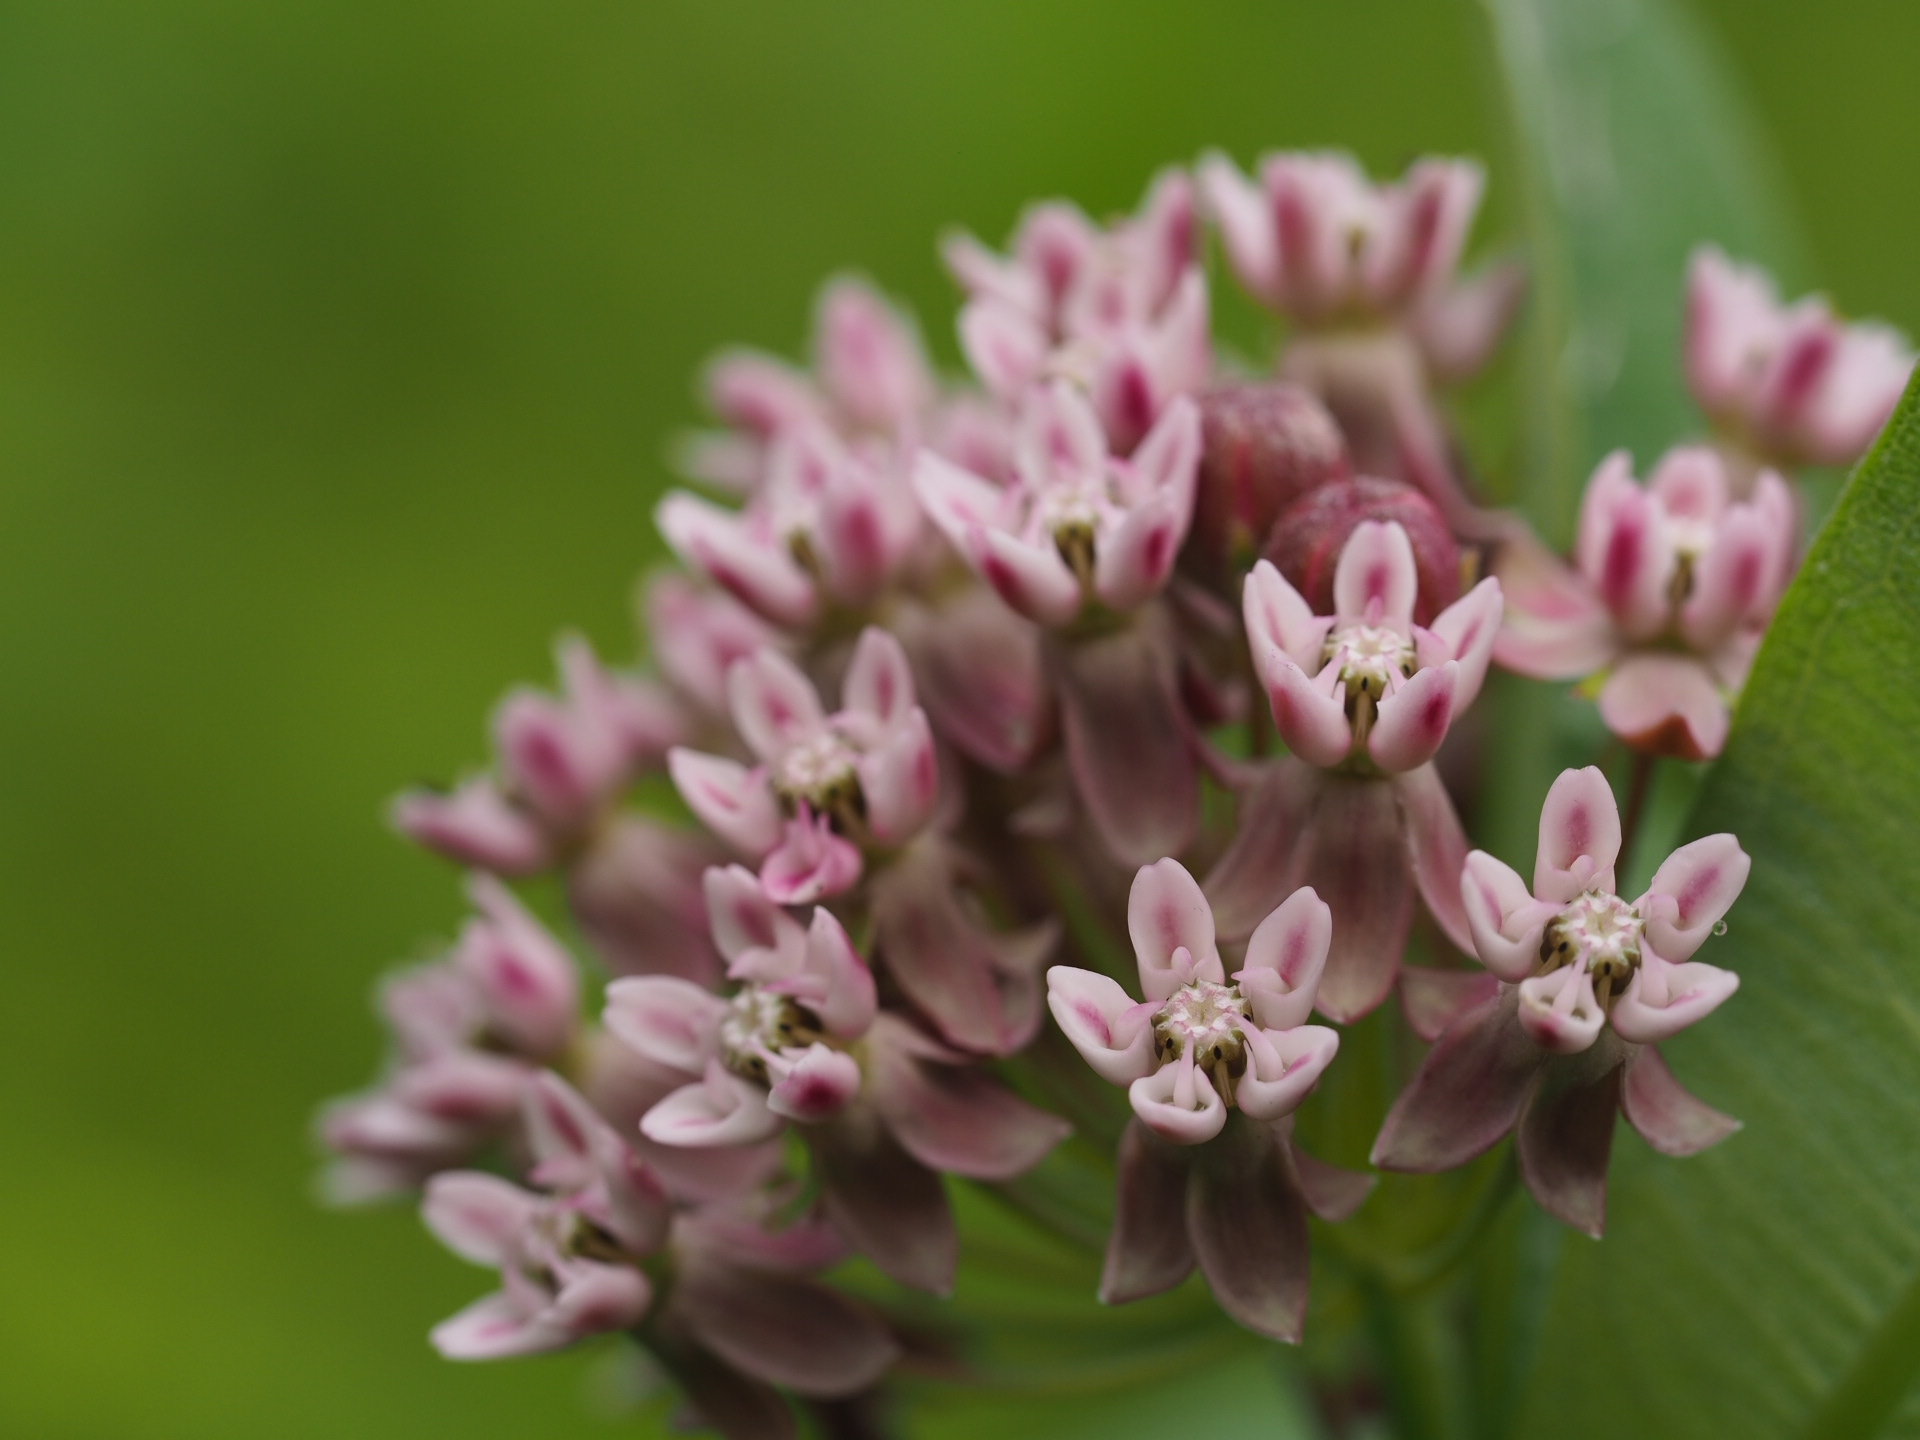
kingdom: Plantae
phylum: Tracheophyta
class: Magnoliopsida
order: Gentianales
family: Apocynaceae
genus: Asclepias
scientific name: Asclepias syriaca
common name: Common milkweed
